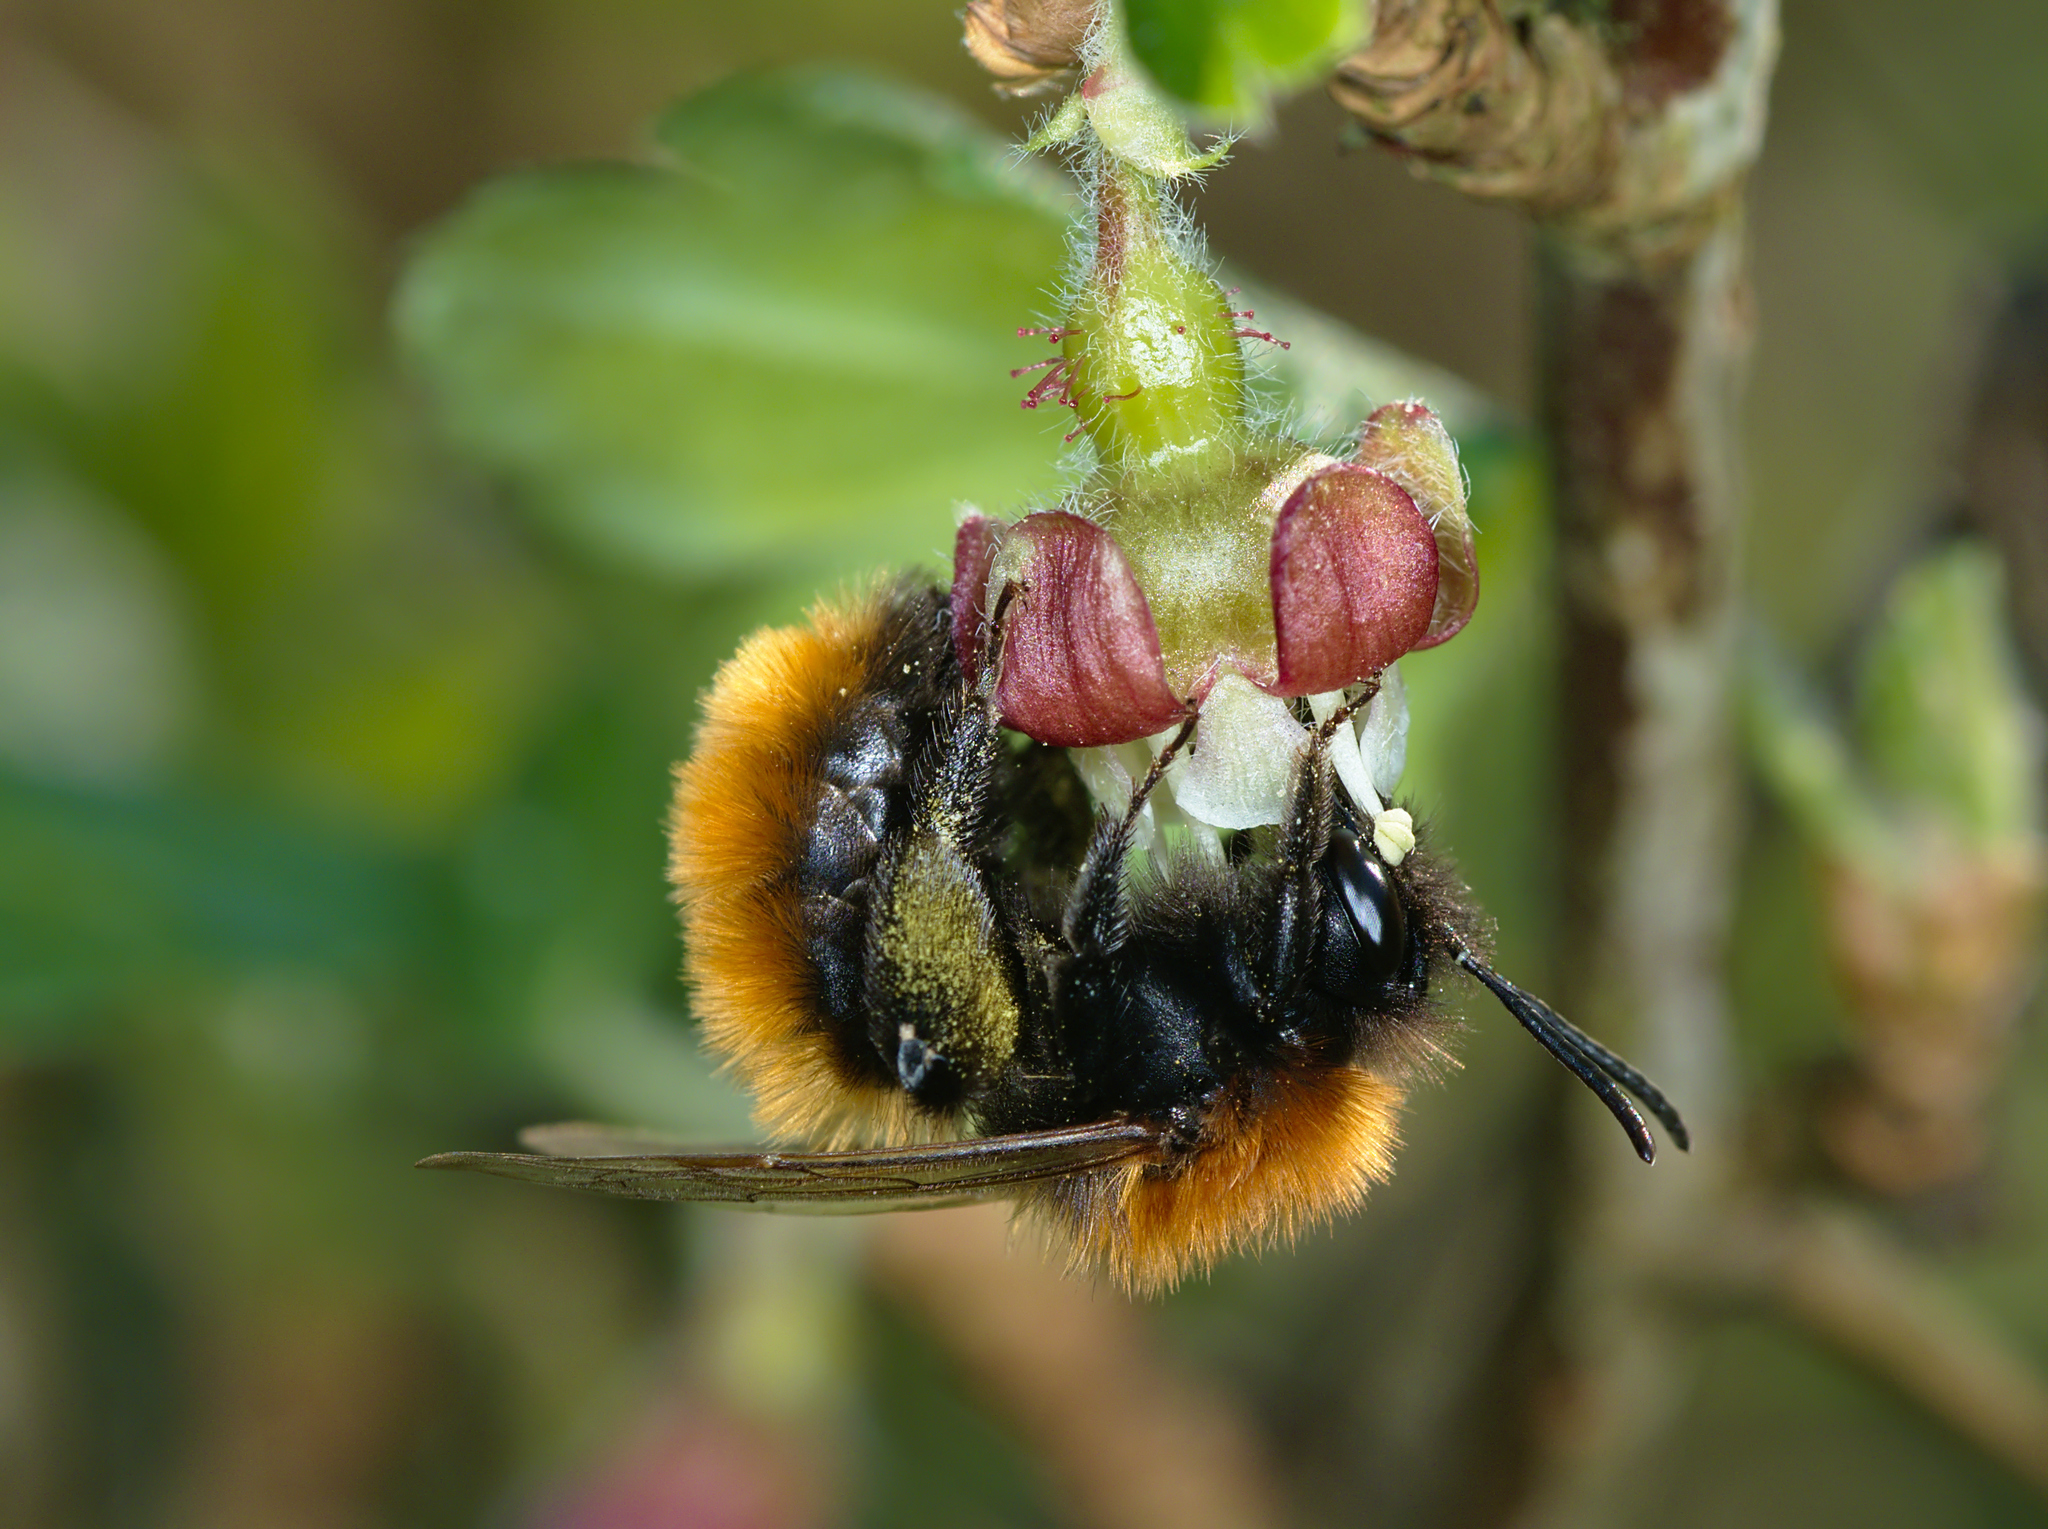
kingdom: Animalia
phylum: Arthropoda
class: Insecta
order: Hymenoptera
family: Andrenidae
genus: Andrena
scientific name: Andrena fulva
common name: Tawny mining bee
